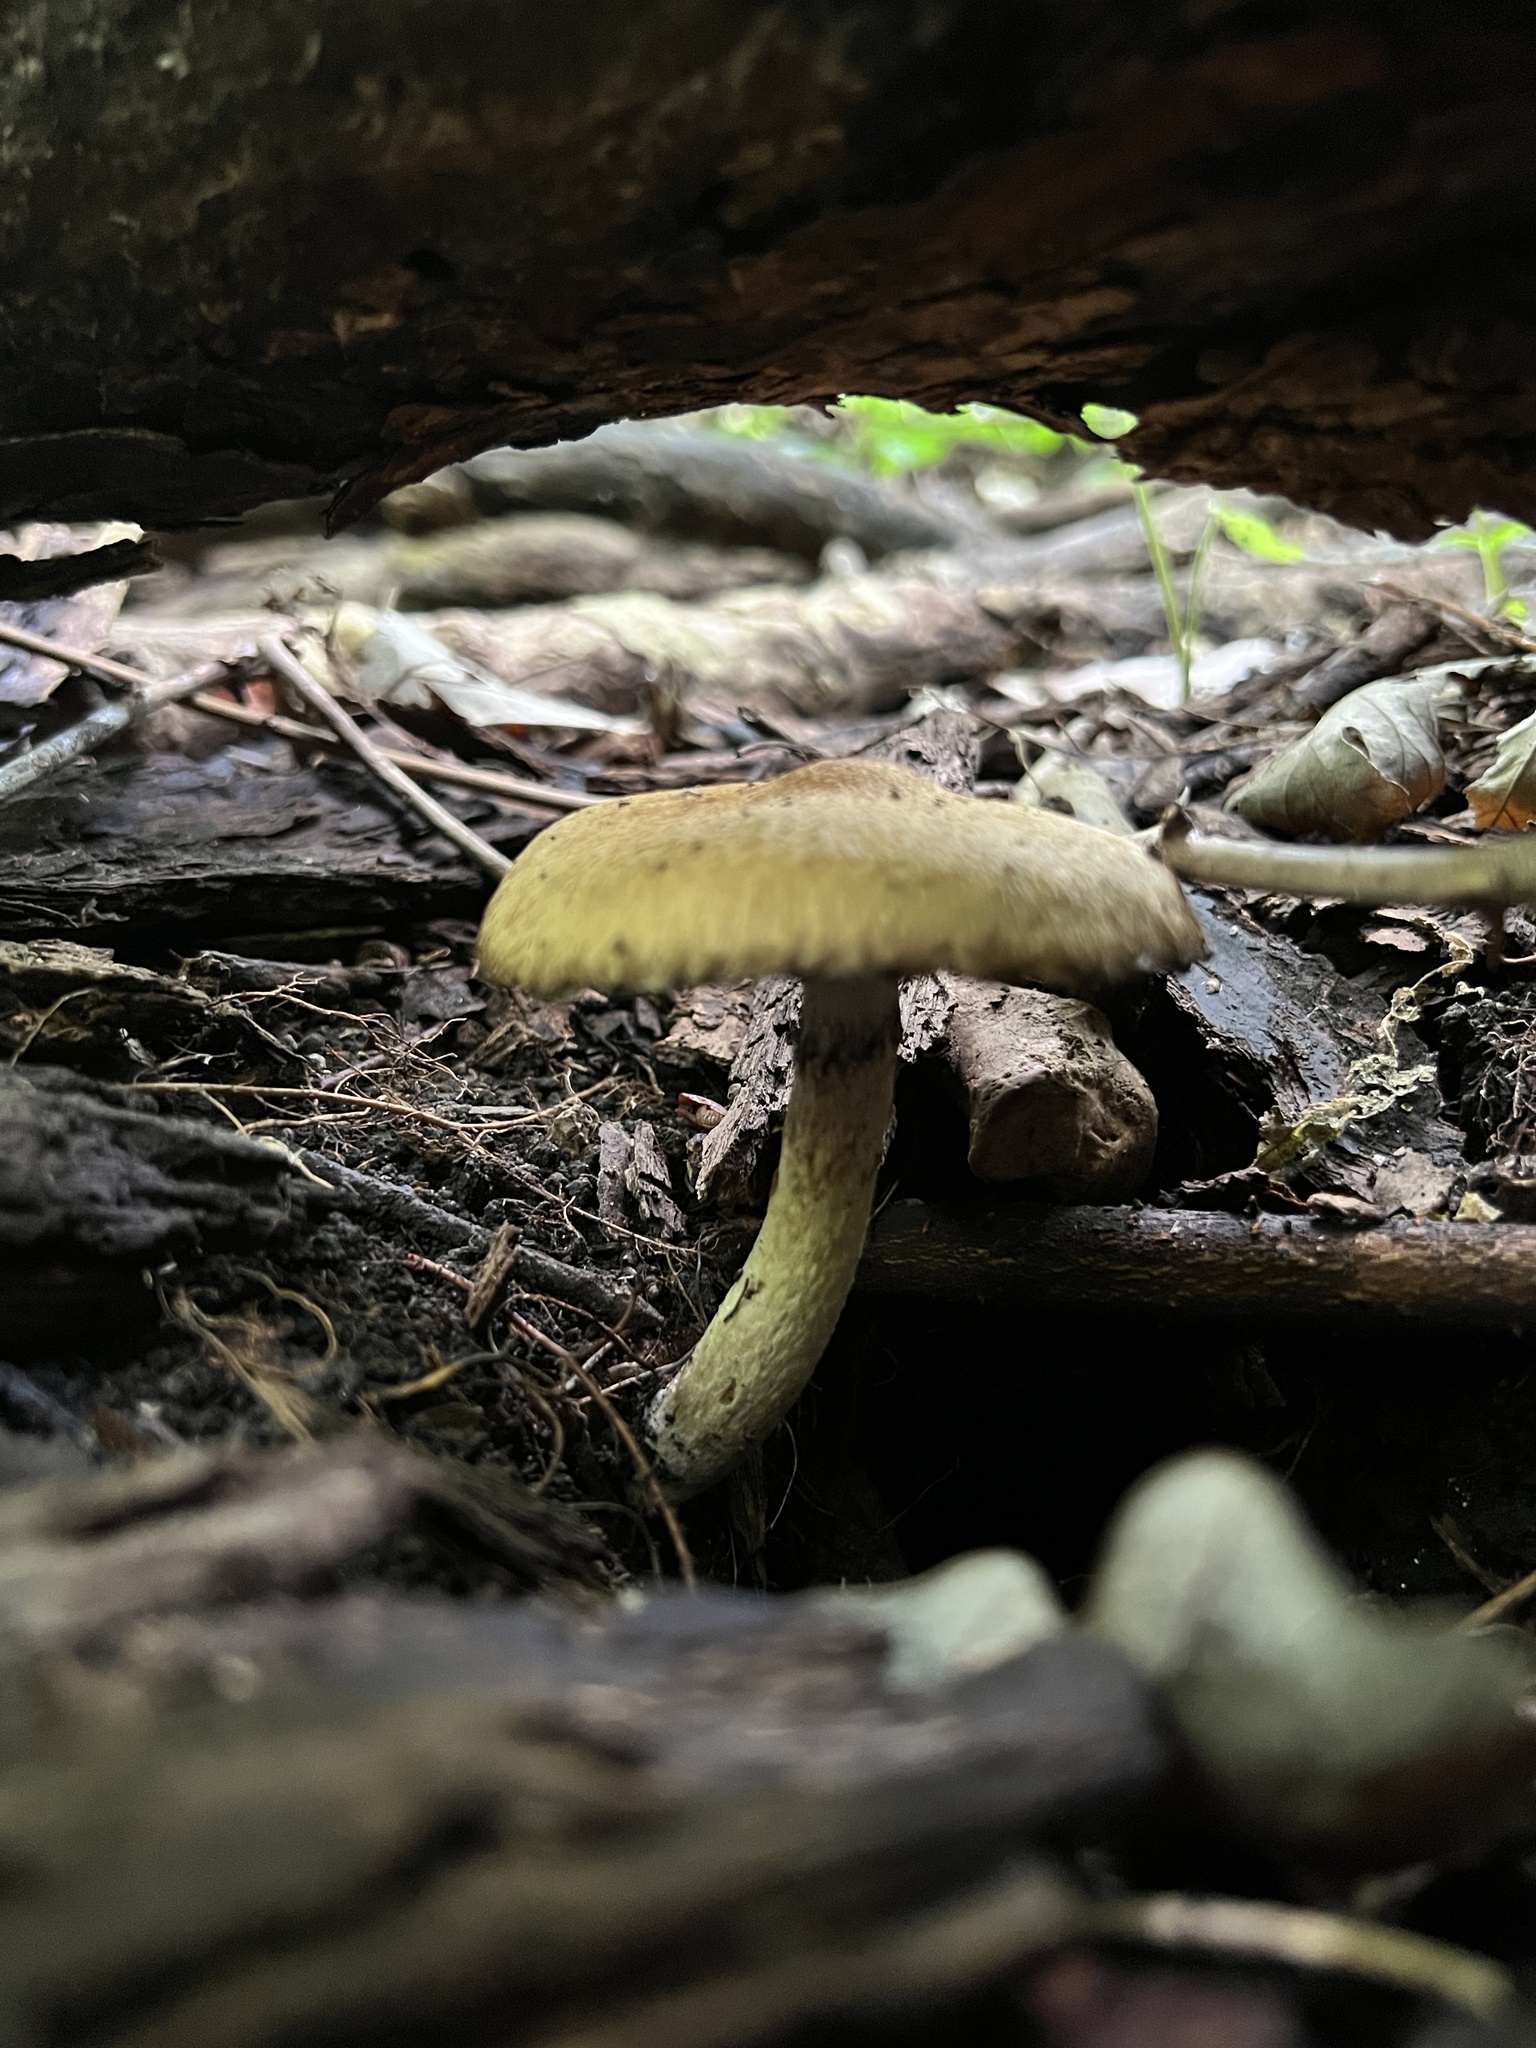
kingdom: Fungi
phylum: Basidiomycota
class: Agaricomycetes
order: Agaricales
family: Psathyrellaceae
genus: Lacrymaria
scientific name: Lacrymaria lacrymabunda
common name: Weeping widow
